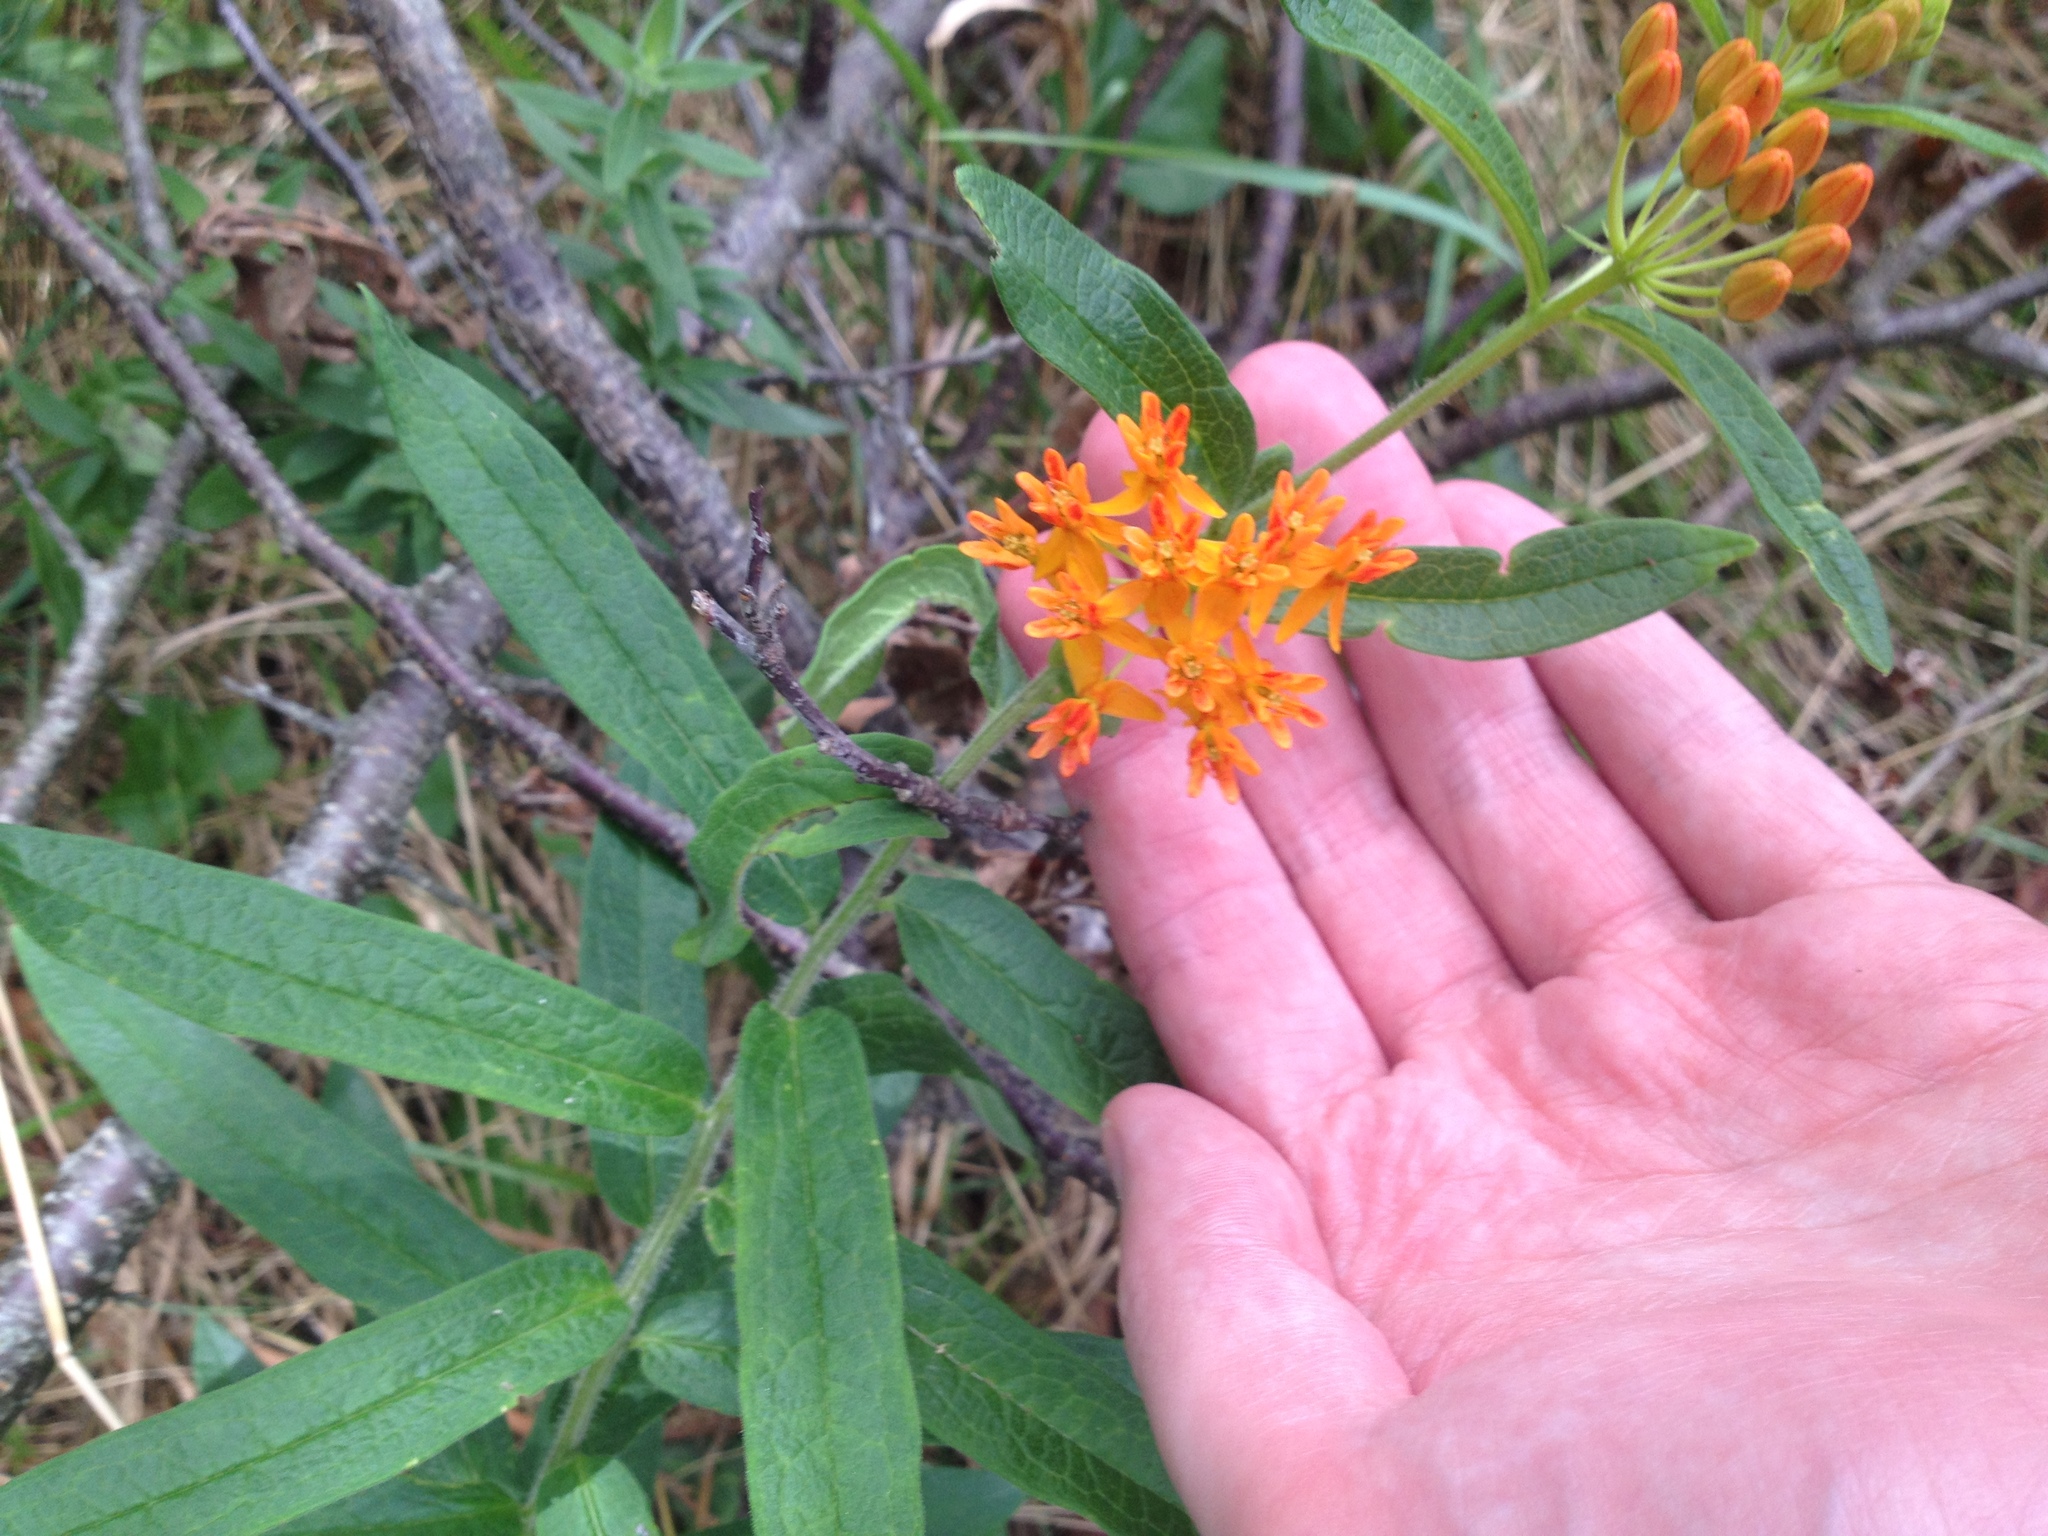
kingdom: Plantae
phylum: Tracheophyta
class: Magnoliopsida
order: Gentianales
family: Apocynaceae
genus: Asclepias
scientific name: Asclepias tuberosa
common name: Butterfly milkweed
